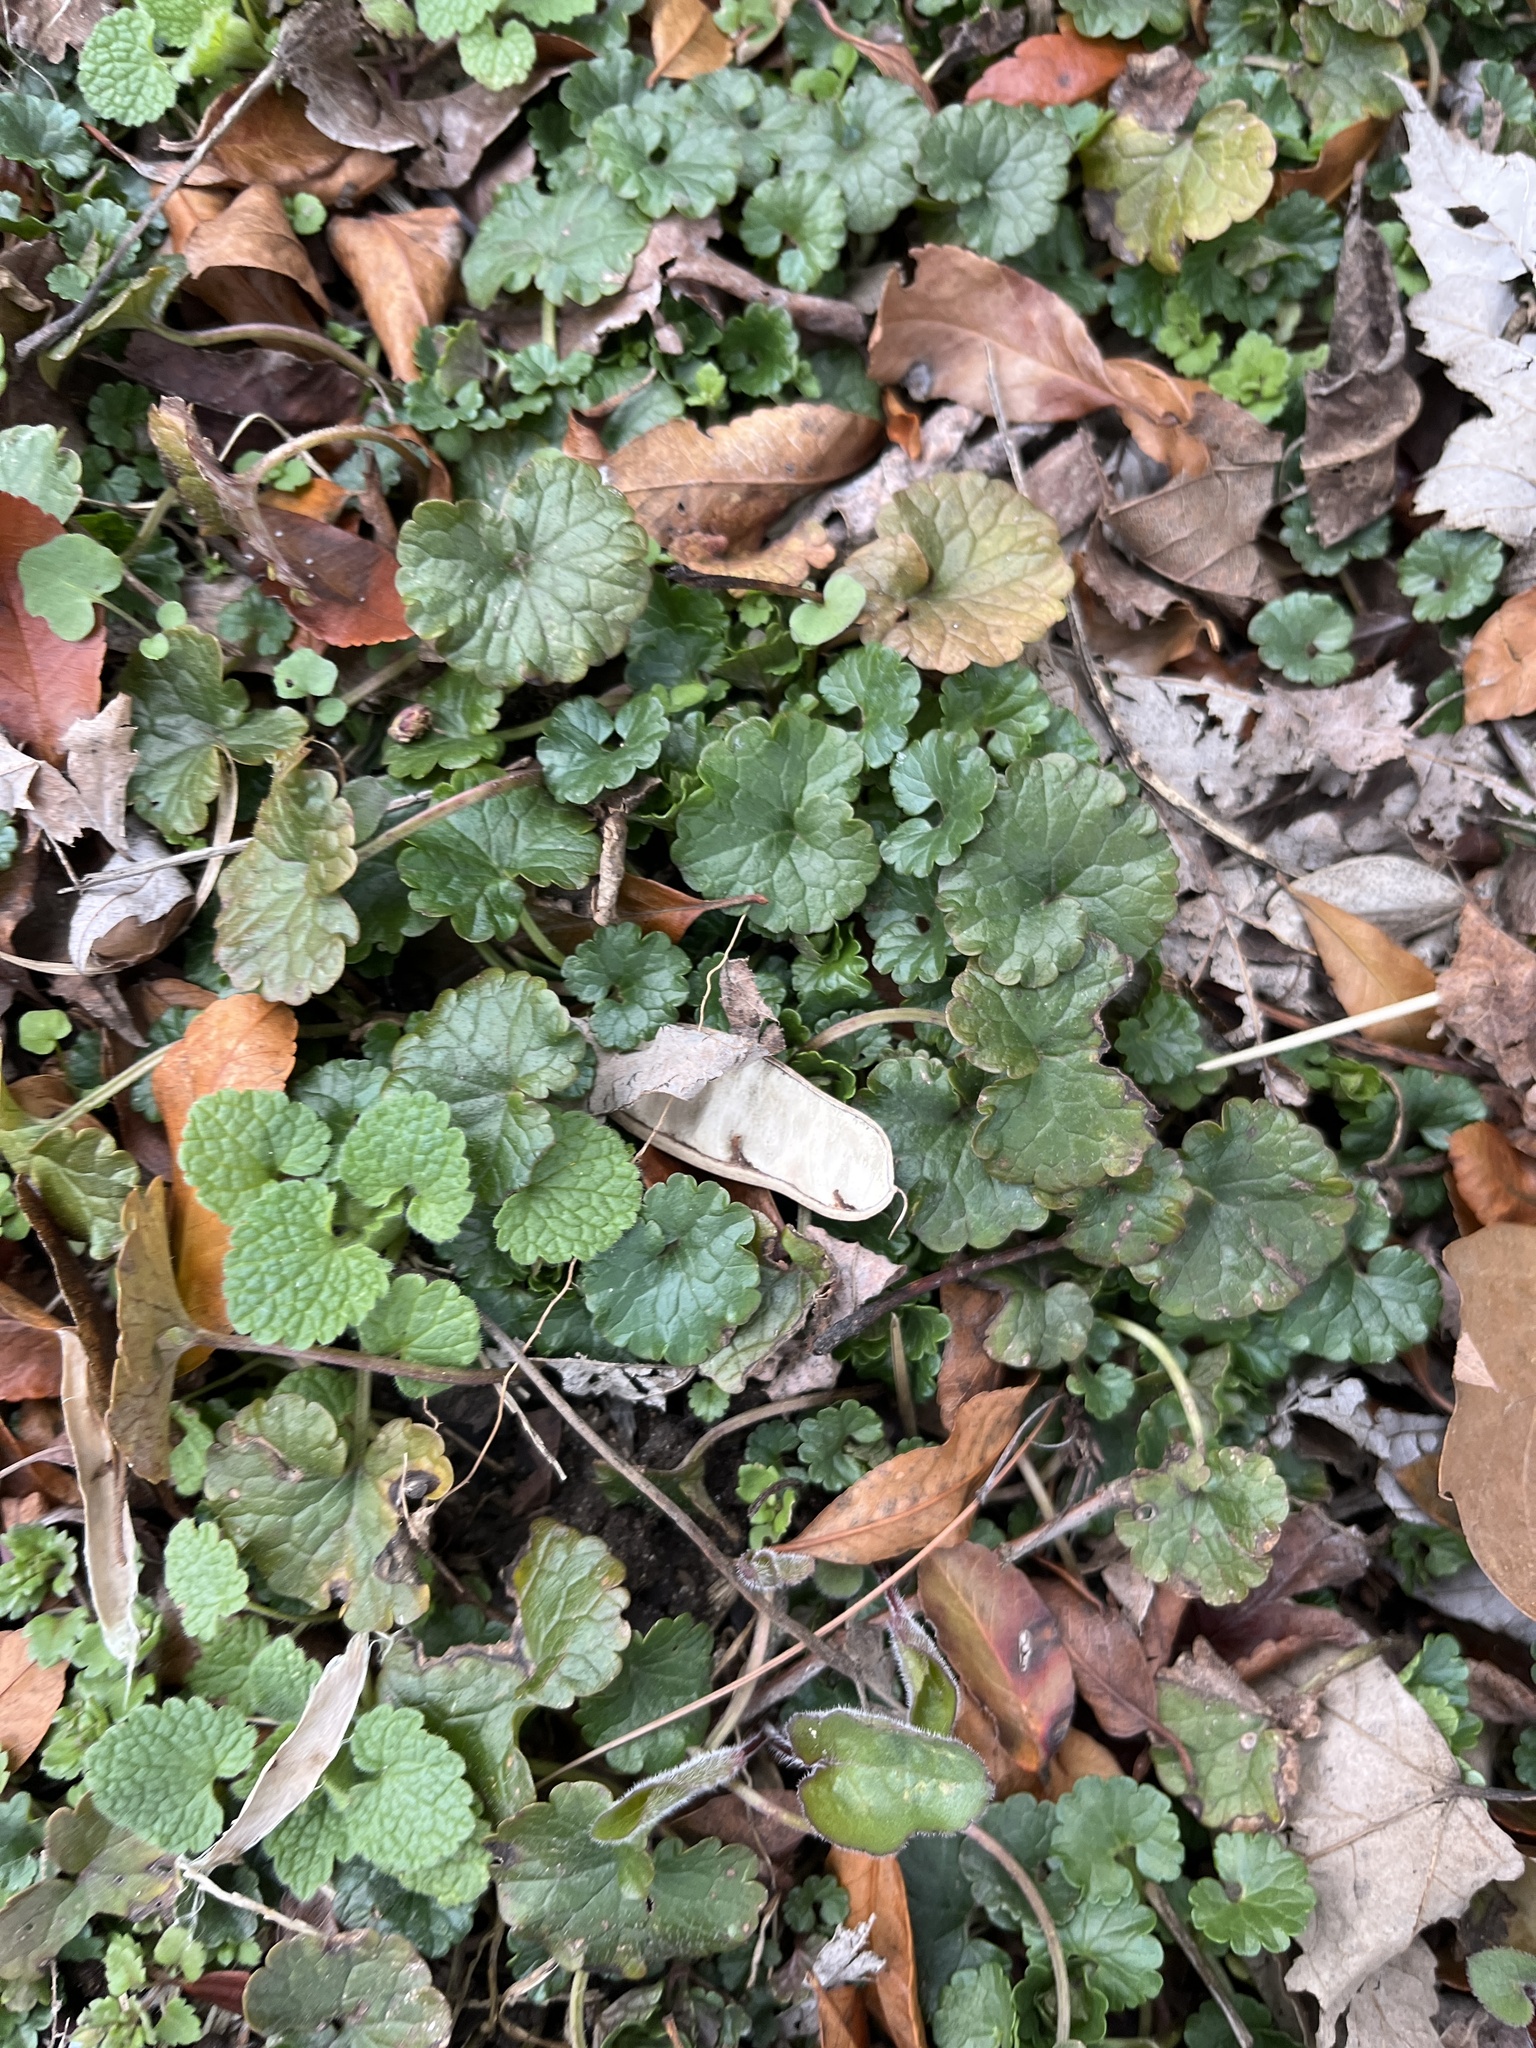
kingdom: Plantae
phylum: Tracheophyta
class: Magnoliopsida
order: Lamiales
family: Lamiaceae
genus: Glechoma
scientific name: Glechoma hederacea
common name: Ground ivy
